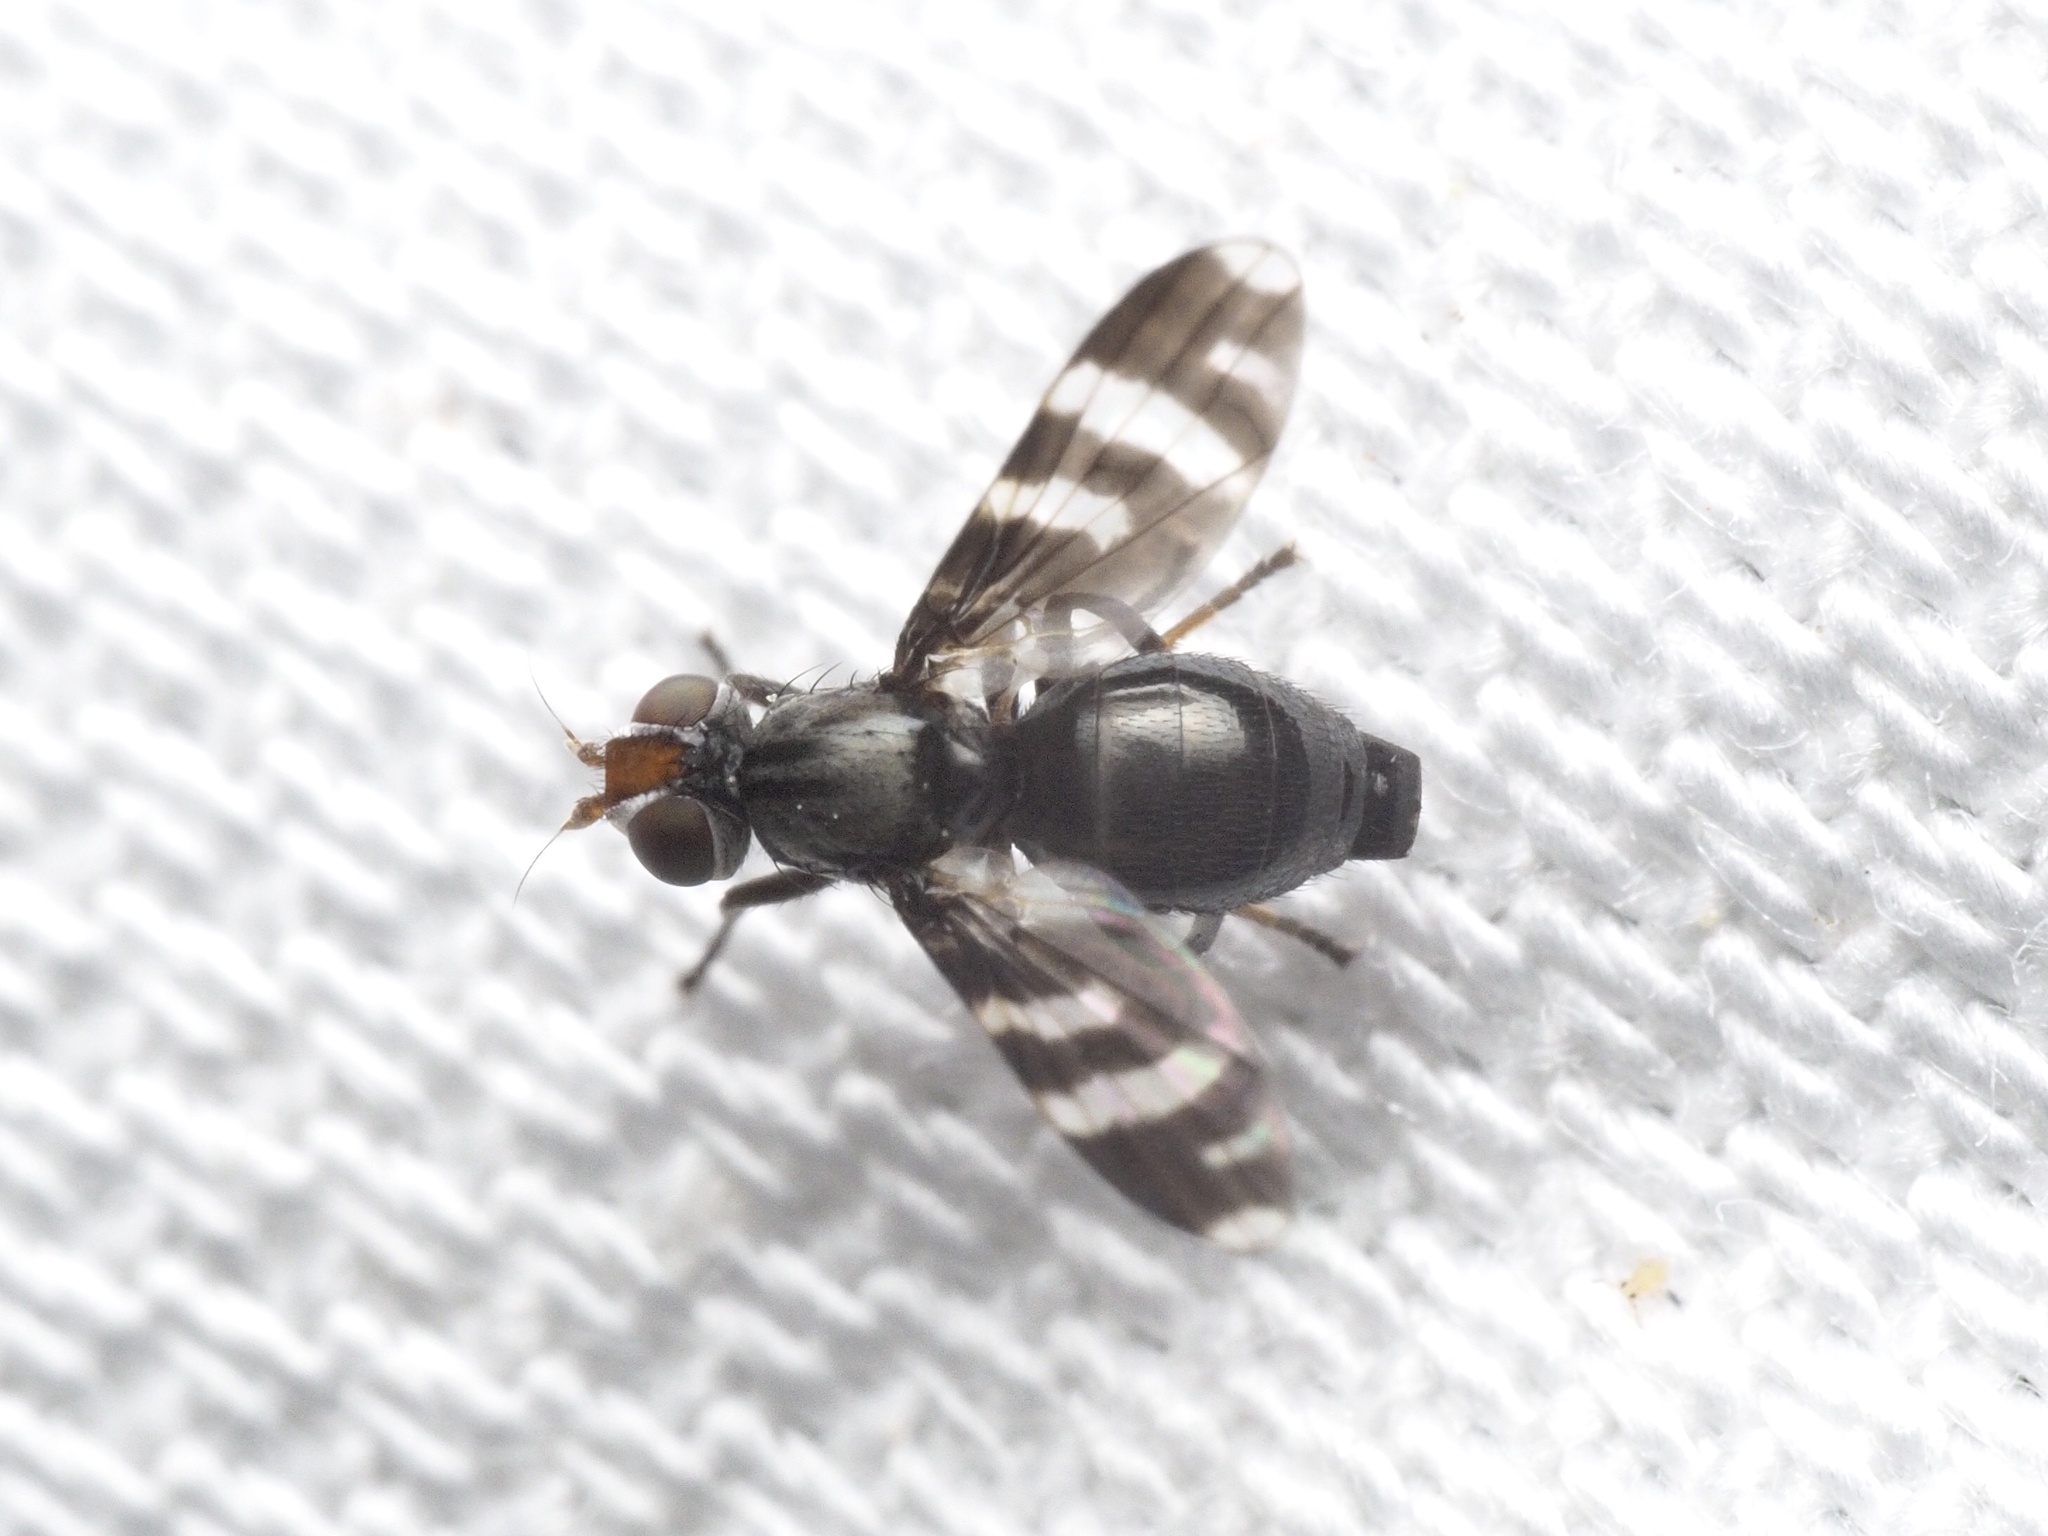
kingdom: Animalia
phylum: Arthropoda
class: Insecta
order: Diptera
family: Ulidiidae
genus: Herina
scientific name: Herina frondescentiae
